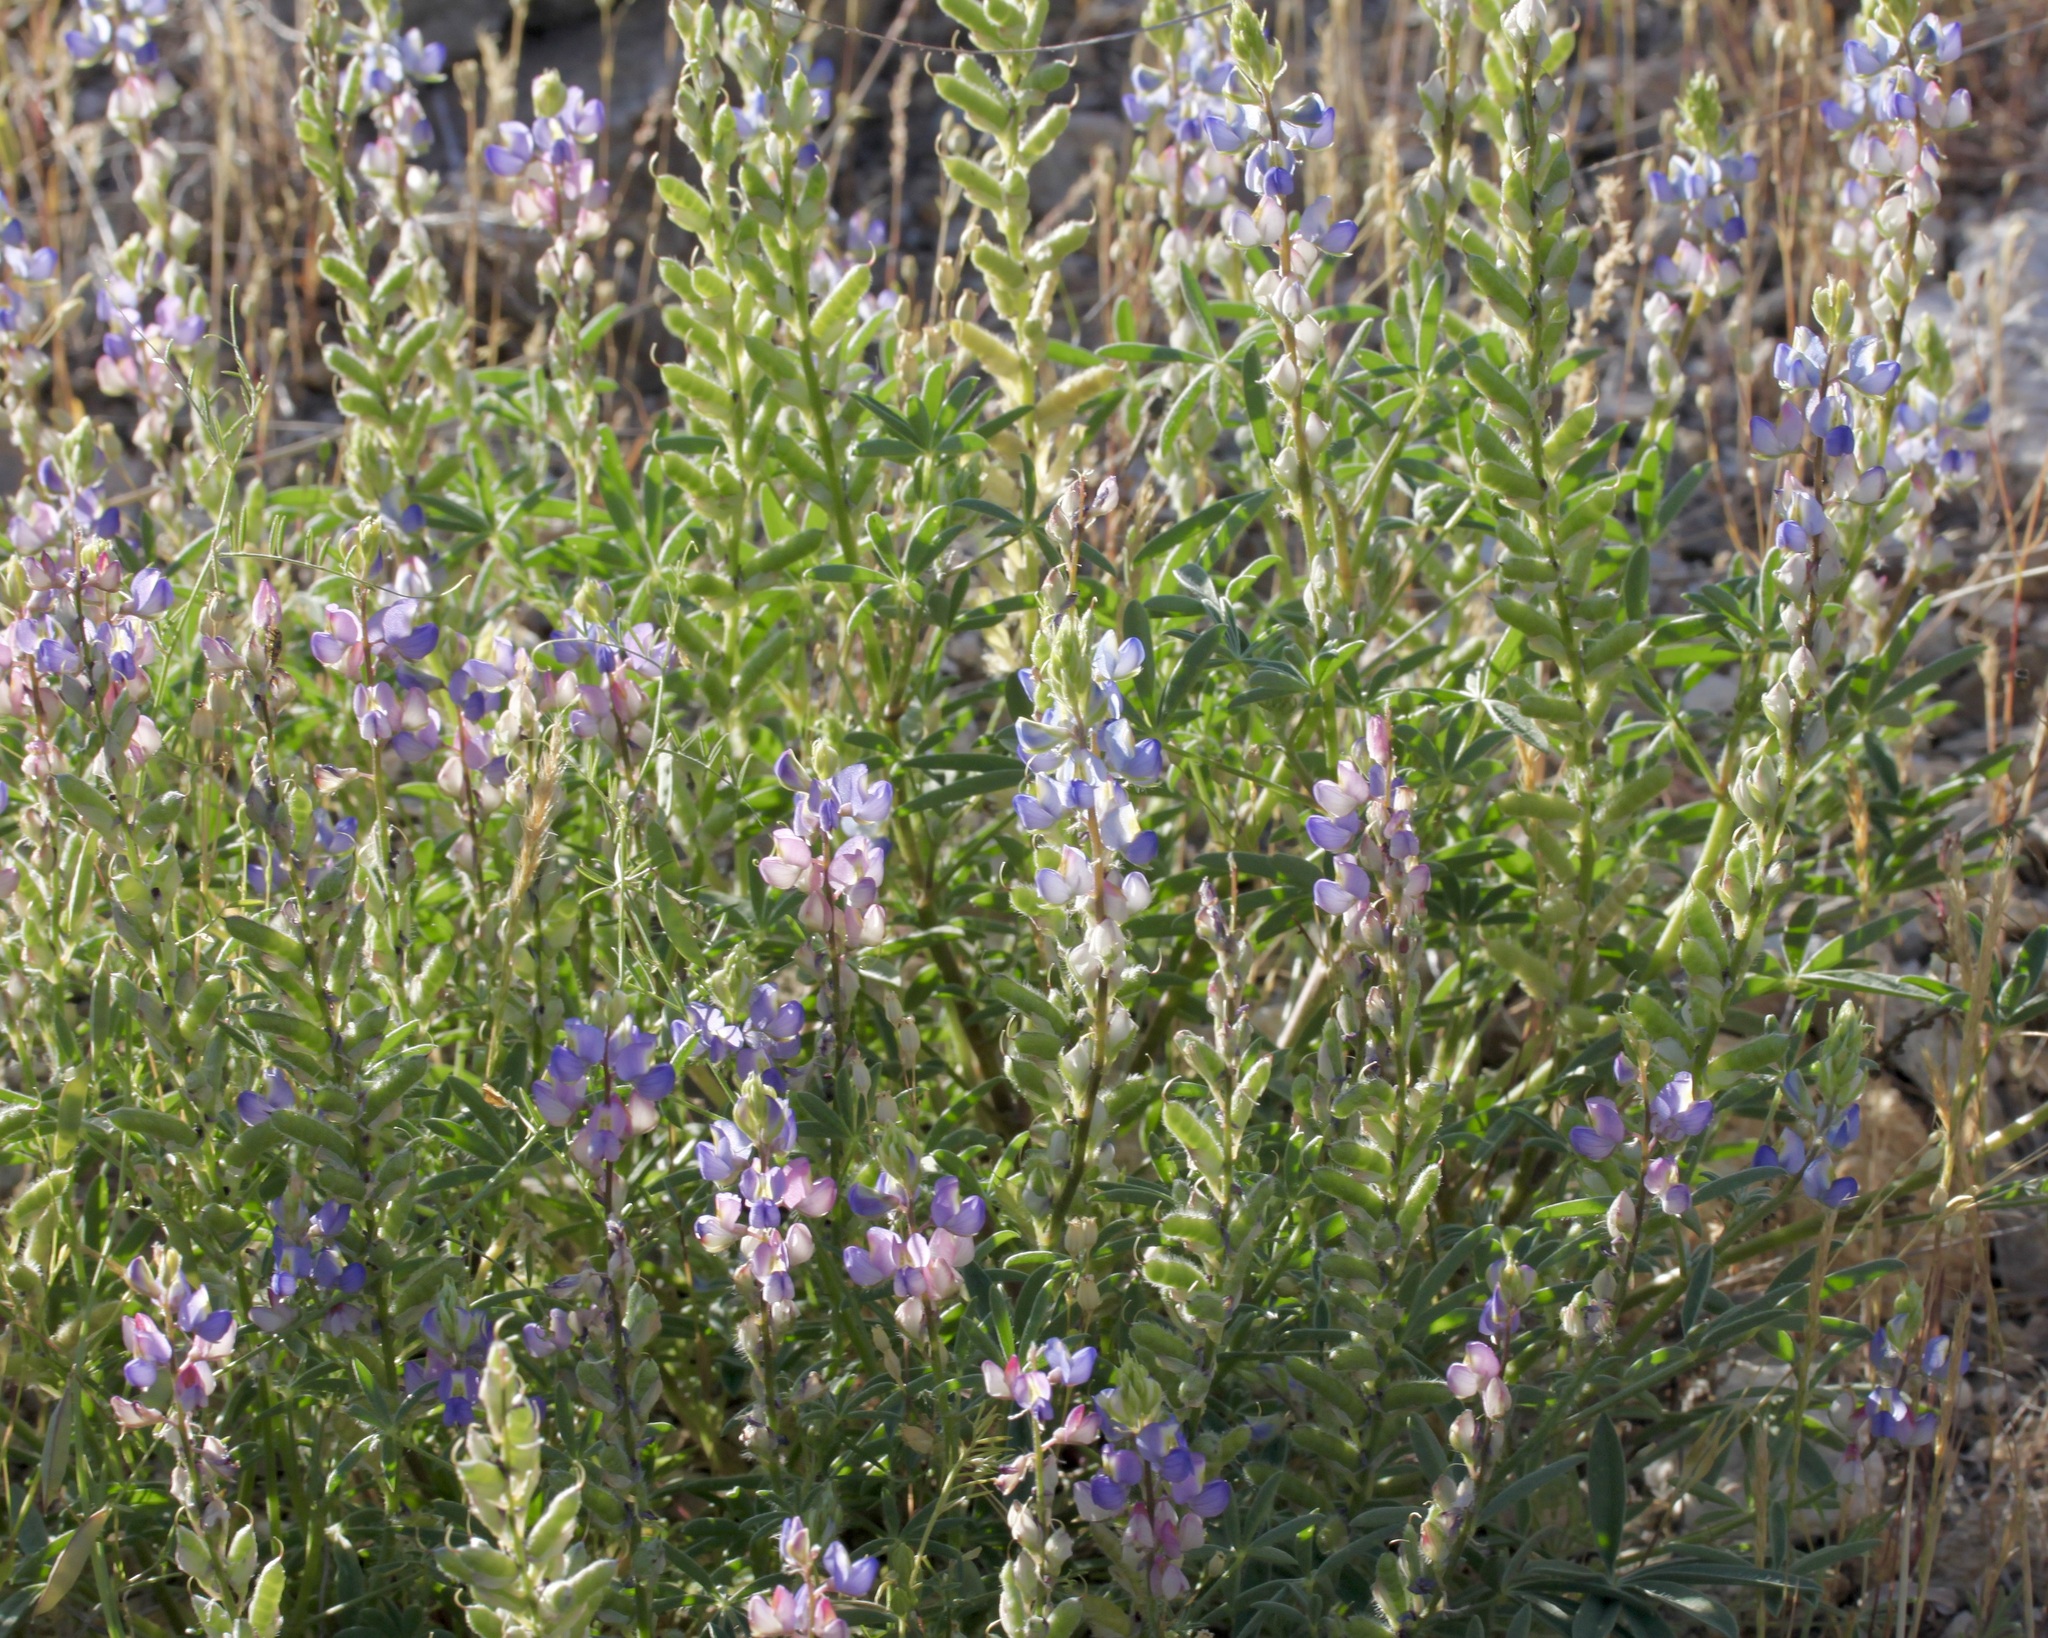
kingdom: Plantae
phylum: Tracheophyta
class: Magnoliopsida
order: Fabales
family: Fabaceae
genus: Lupinus
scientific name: Lupinus sparsiflorus
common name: Coulter's lupine
